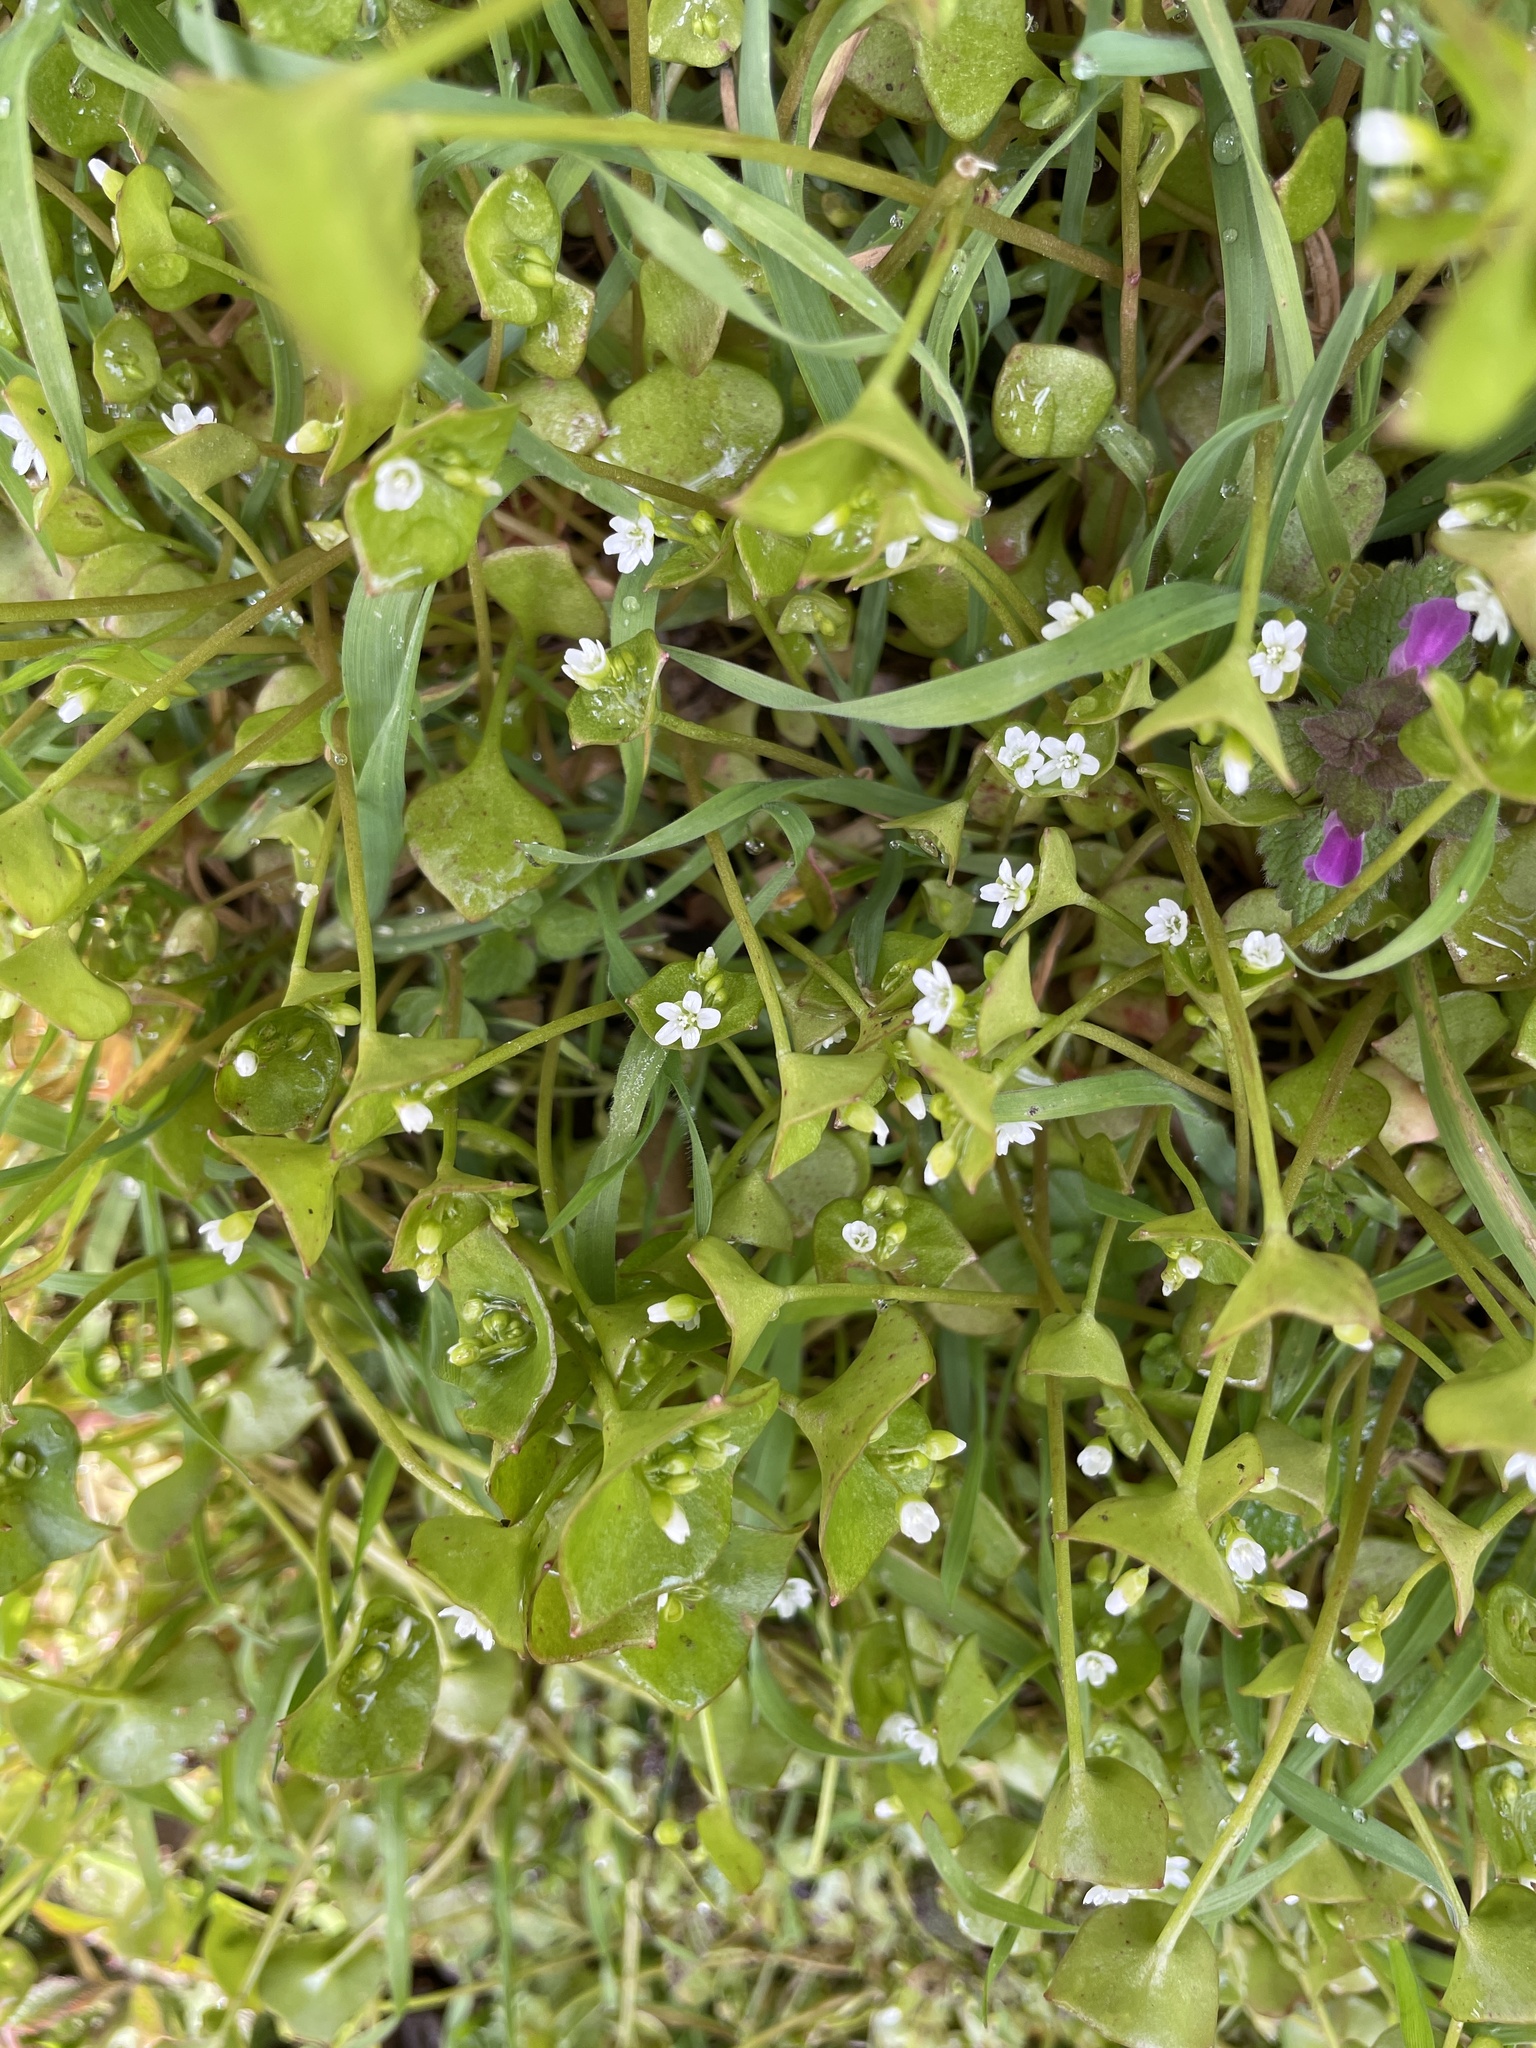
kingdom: Plantae
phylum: Tracheophyta
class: Magnoliopsida
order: Caryophyllales
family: Montiaceae
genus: Claytonia
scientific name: Claytonia perfoliata
